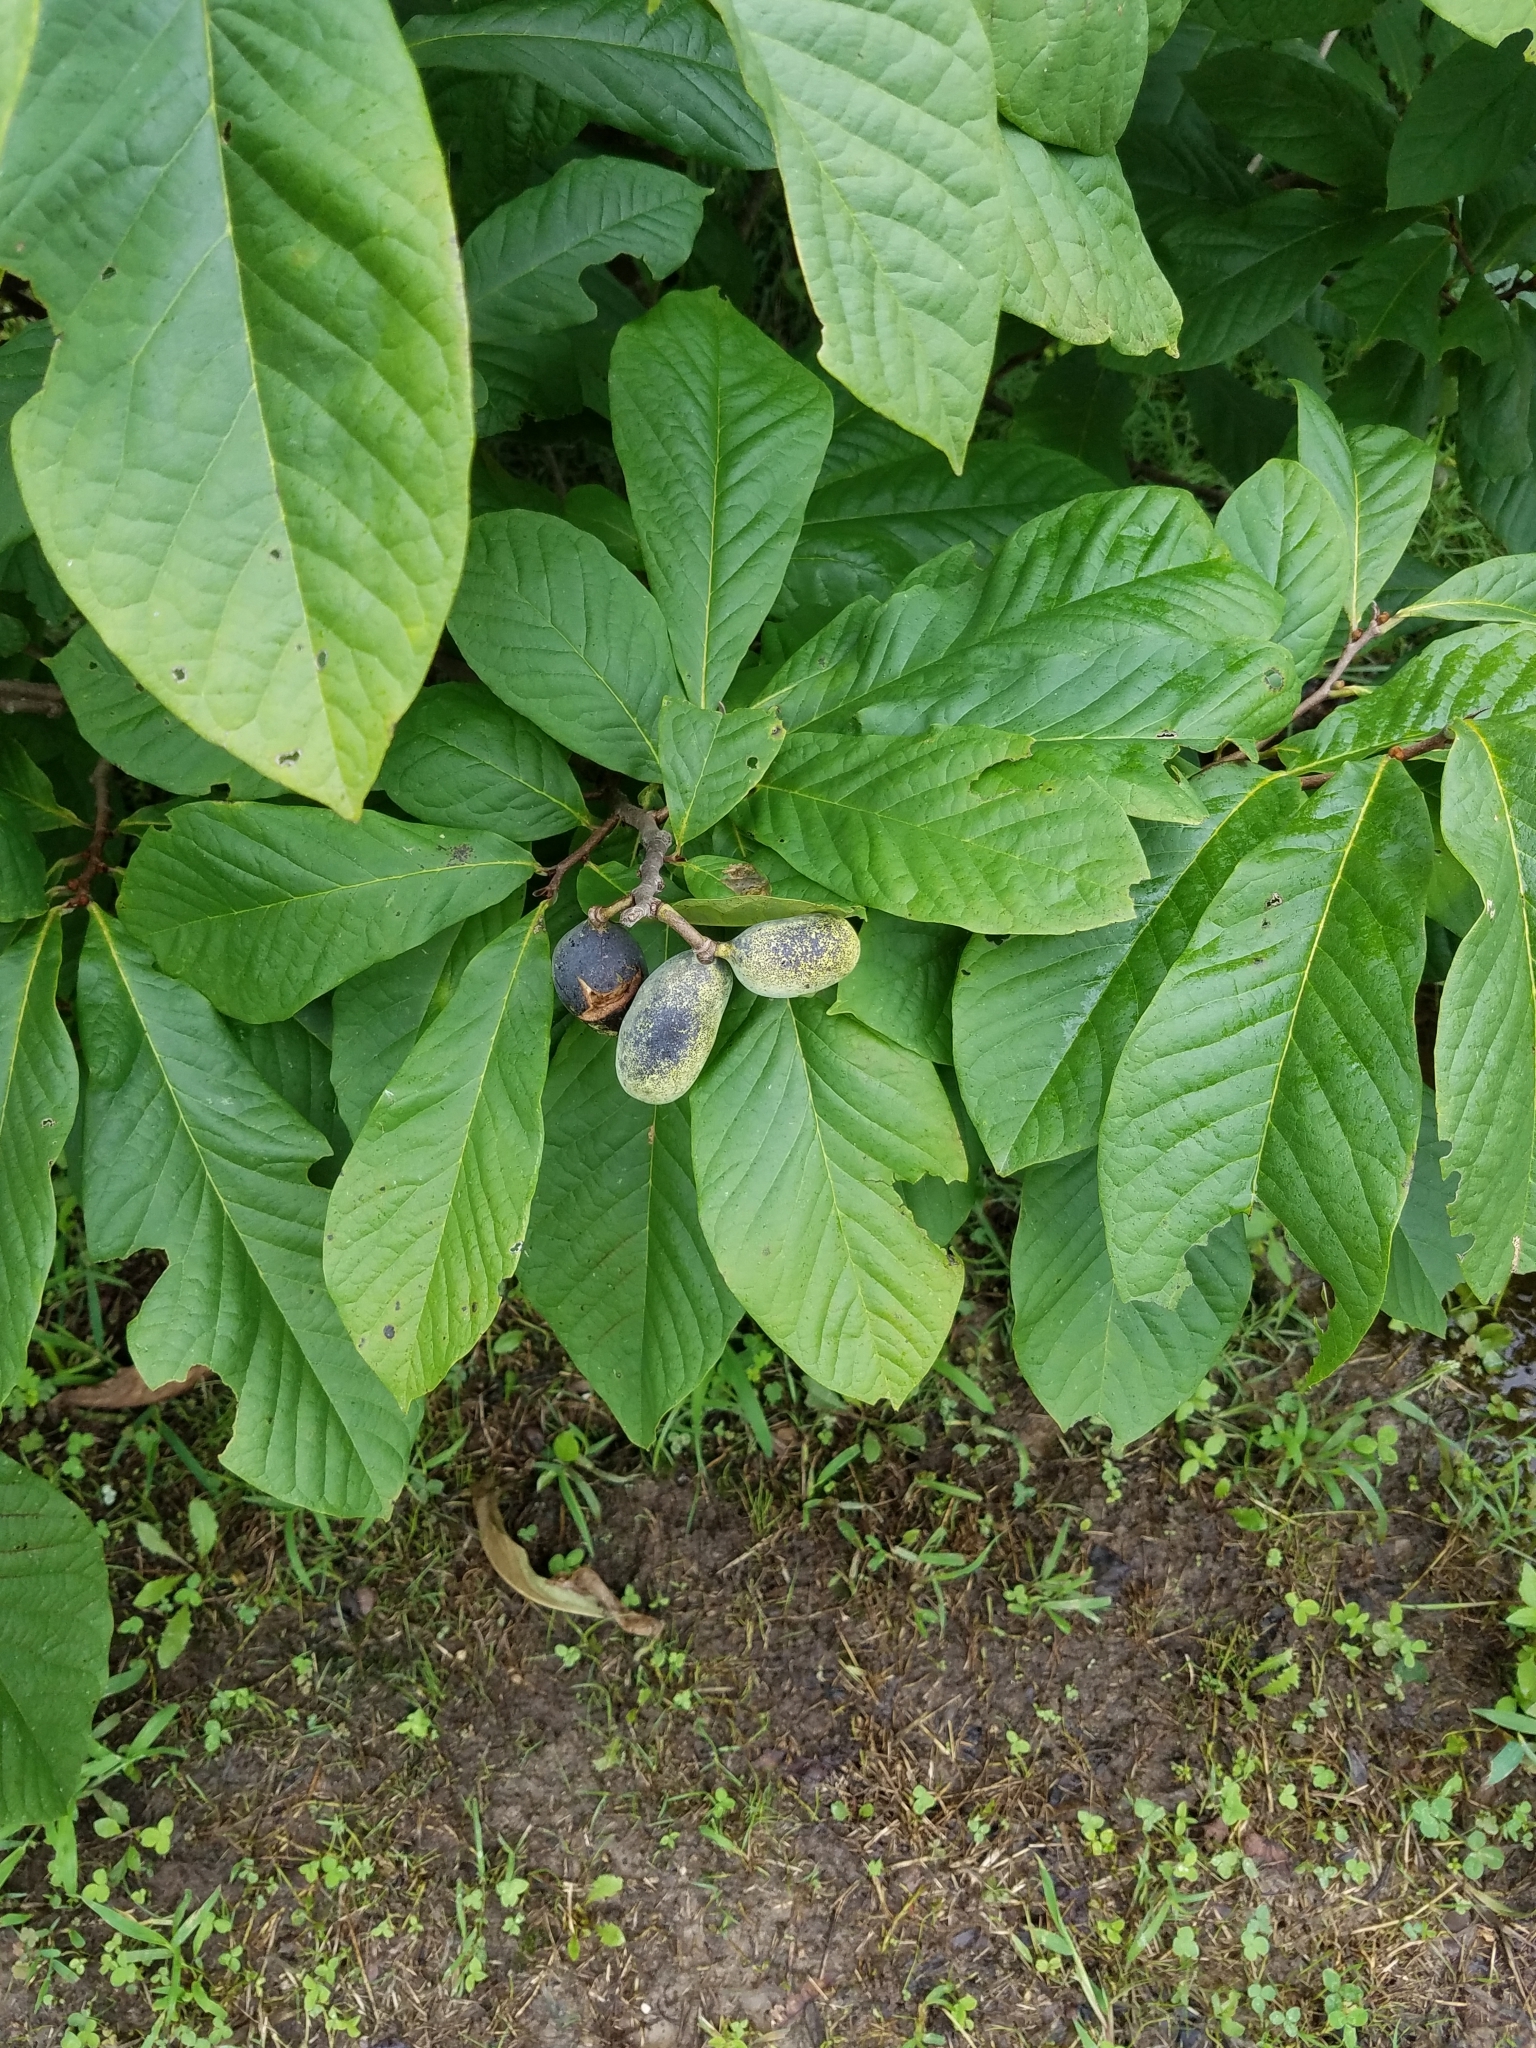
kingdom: Plantae
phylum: Tracheophyta
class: Magnoliopsida
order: Magnoliales
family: Annonaceae
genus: Asimina
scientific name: Asimina triloba
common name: Dog-banana
